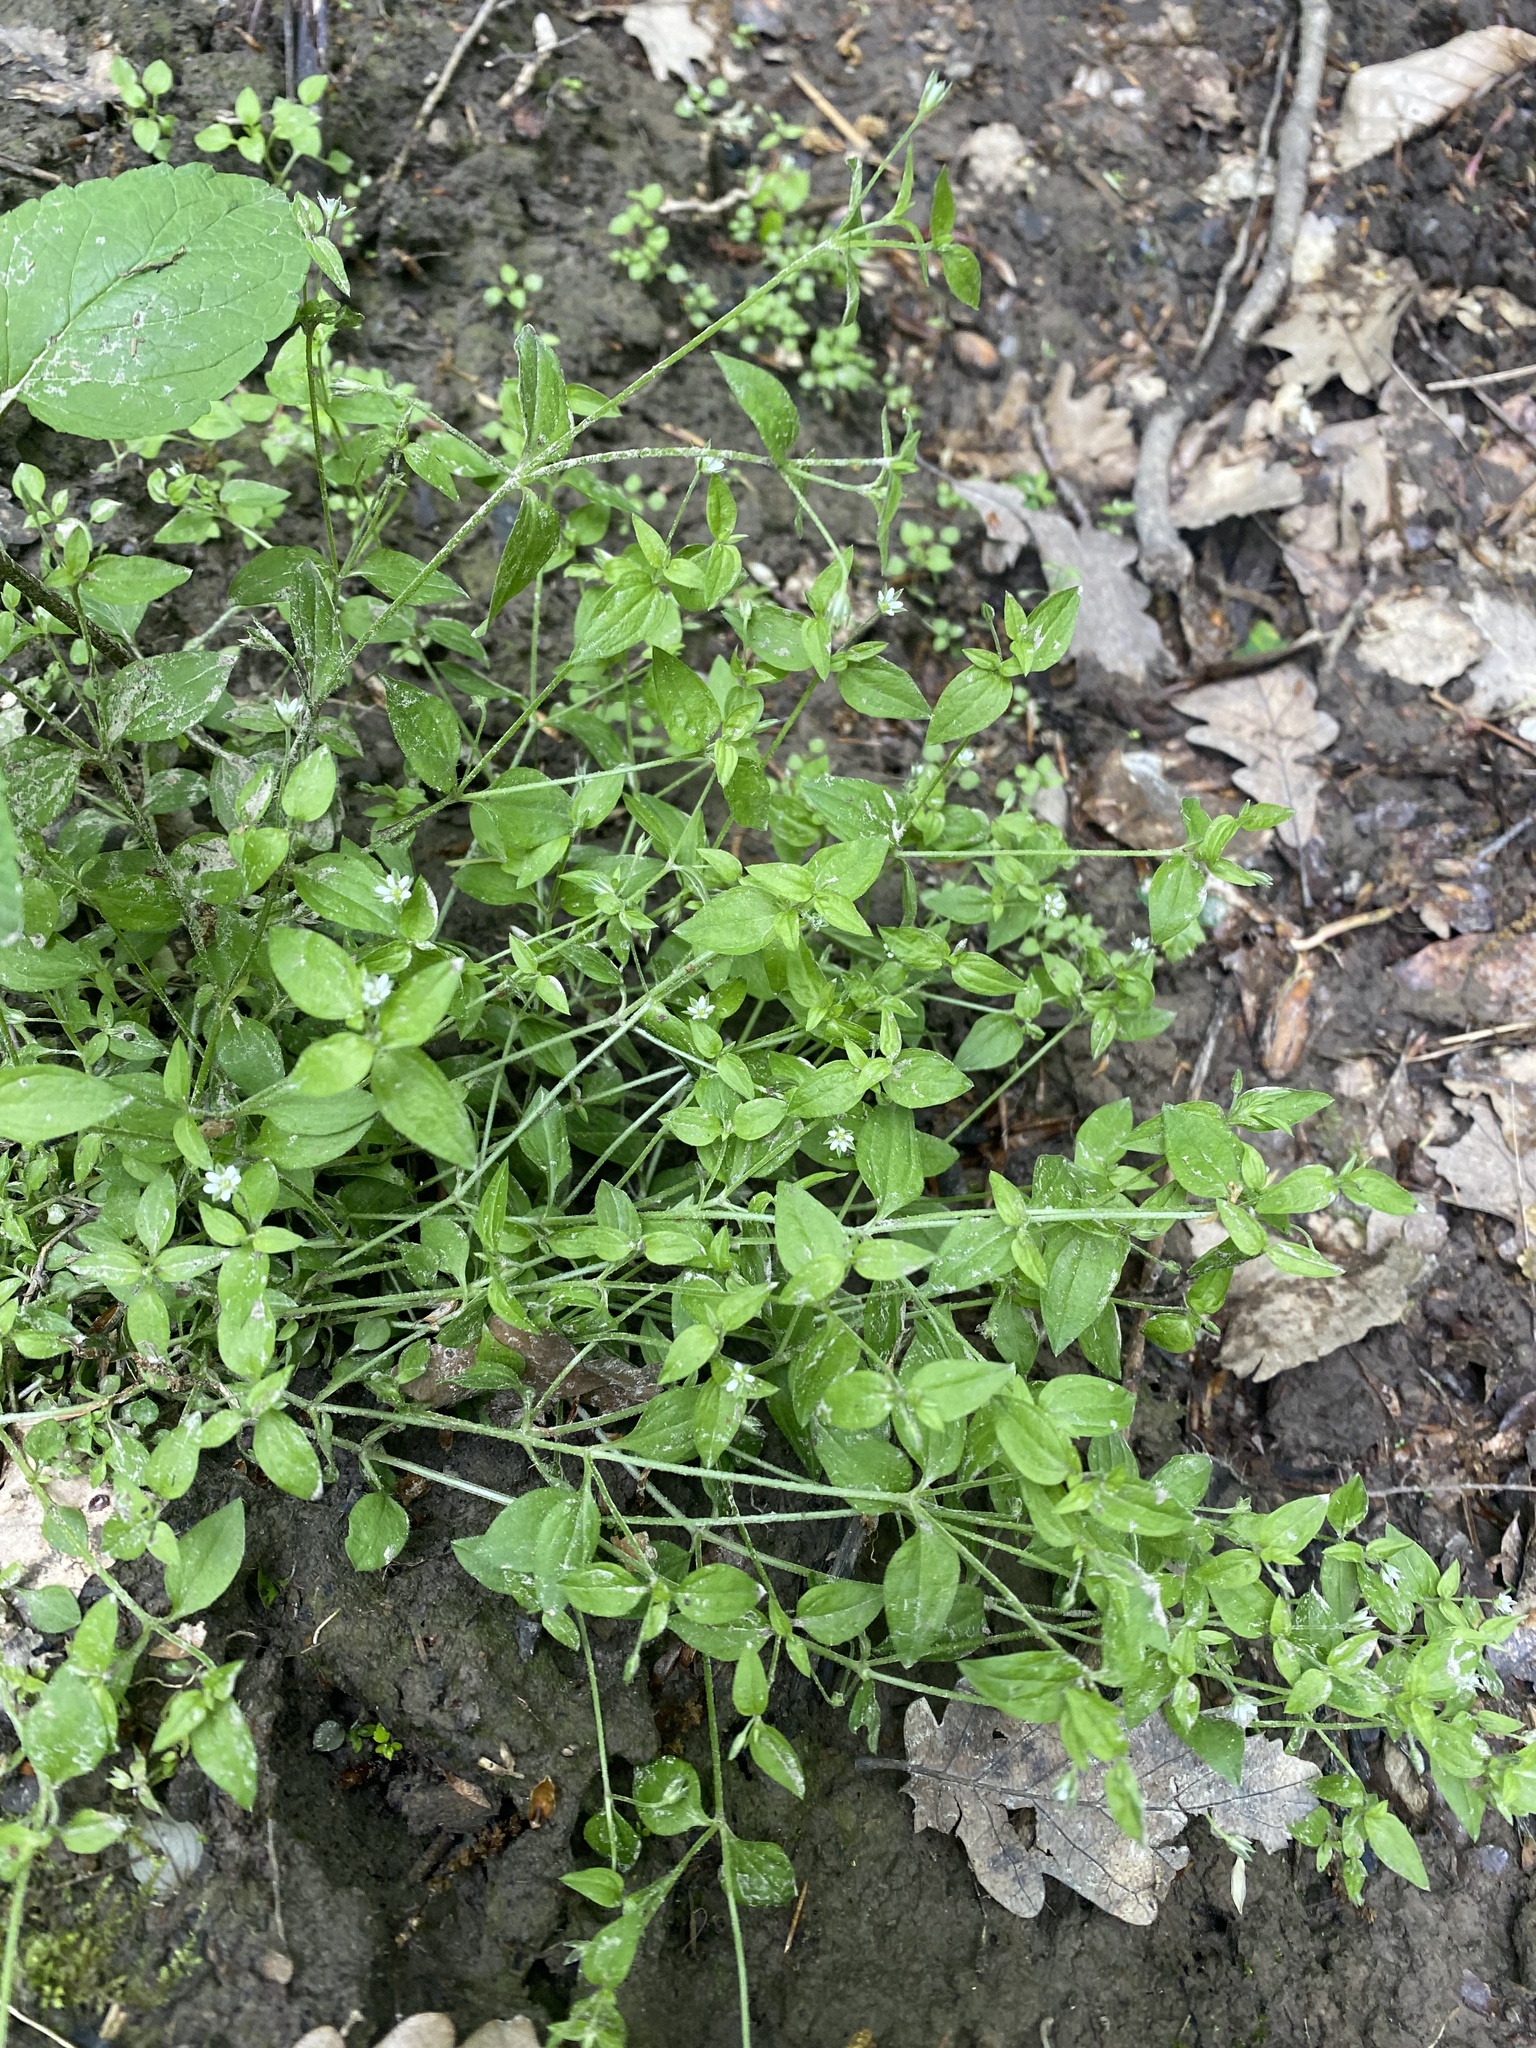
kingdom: Plantae
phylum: Tracheophyta
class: Magnoliopsida
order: Caryophyllales
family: Caryophyllaceae
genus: Moehringia
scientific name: Moehringia trinervia
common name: Three-nerved sandwort
